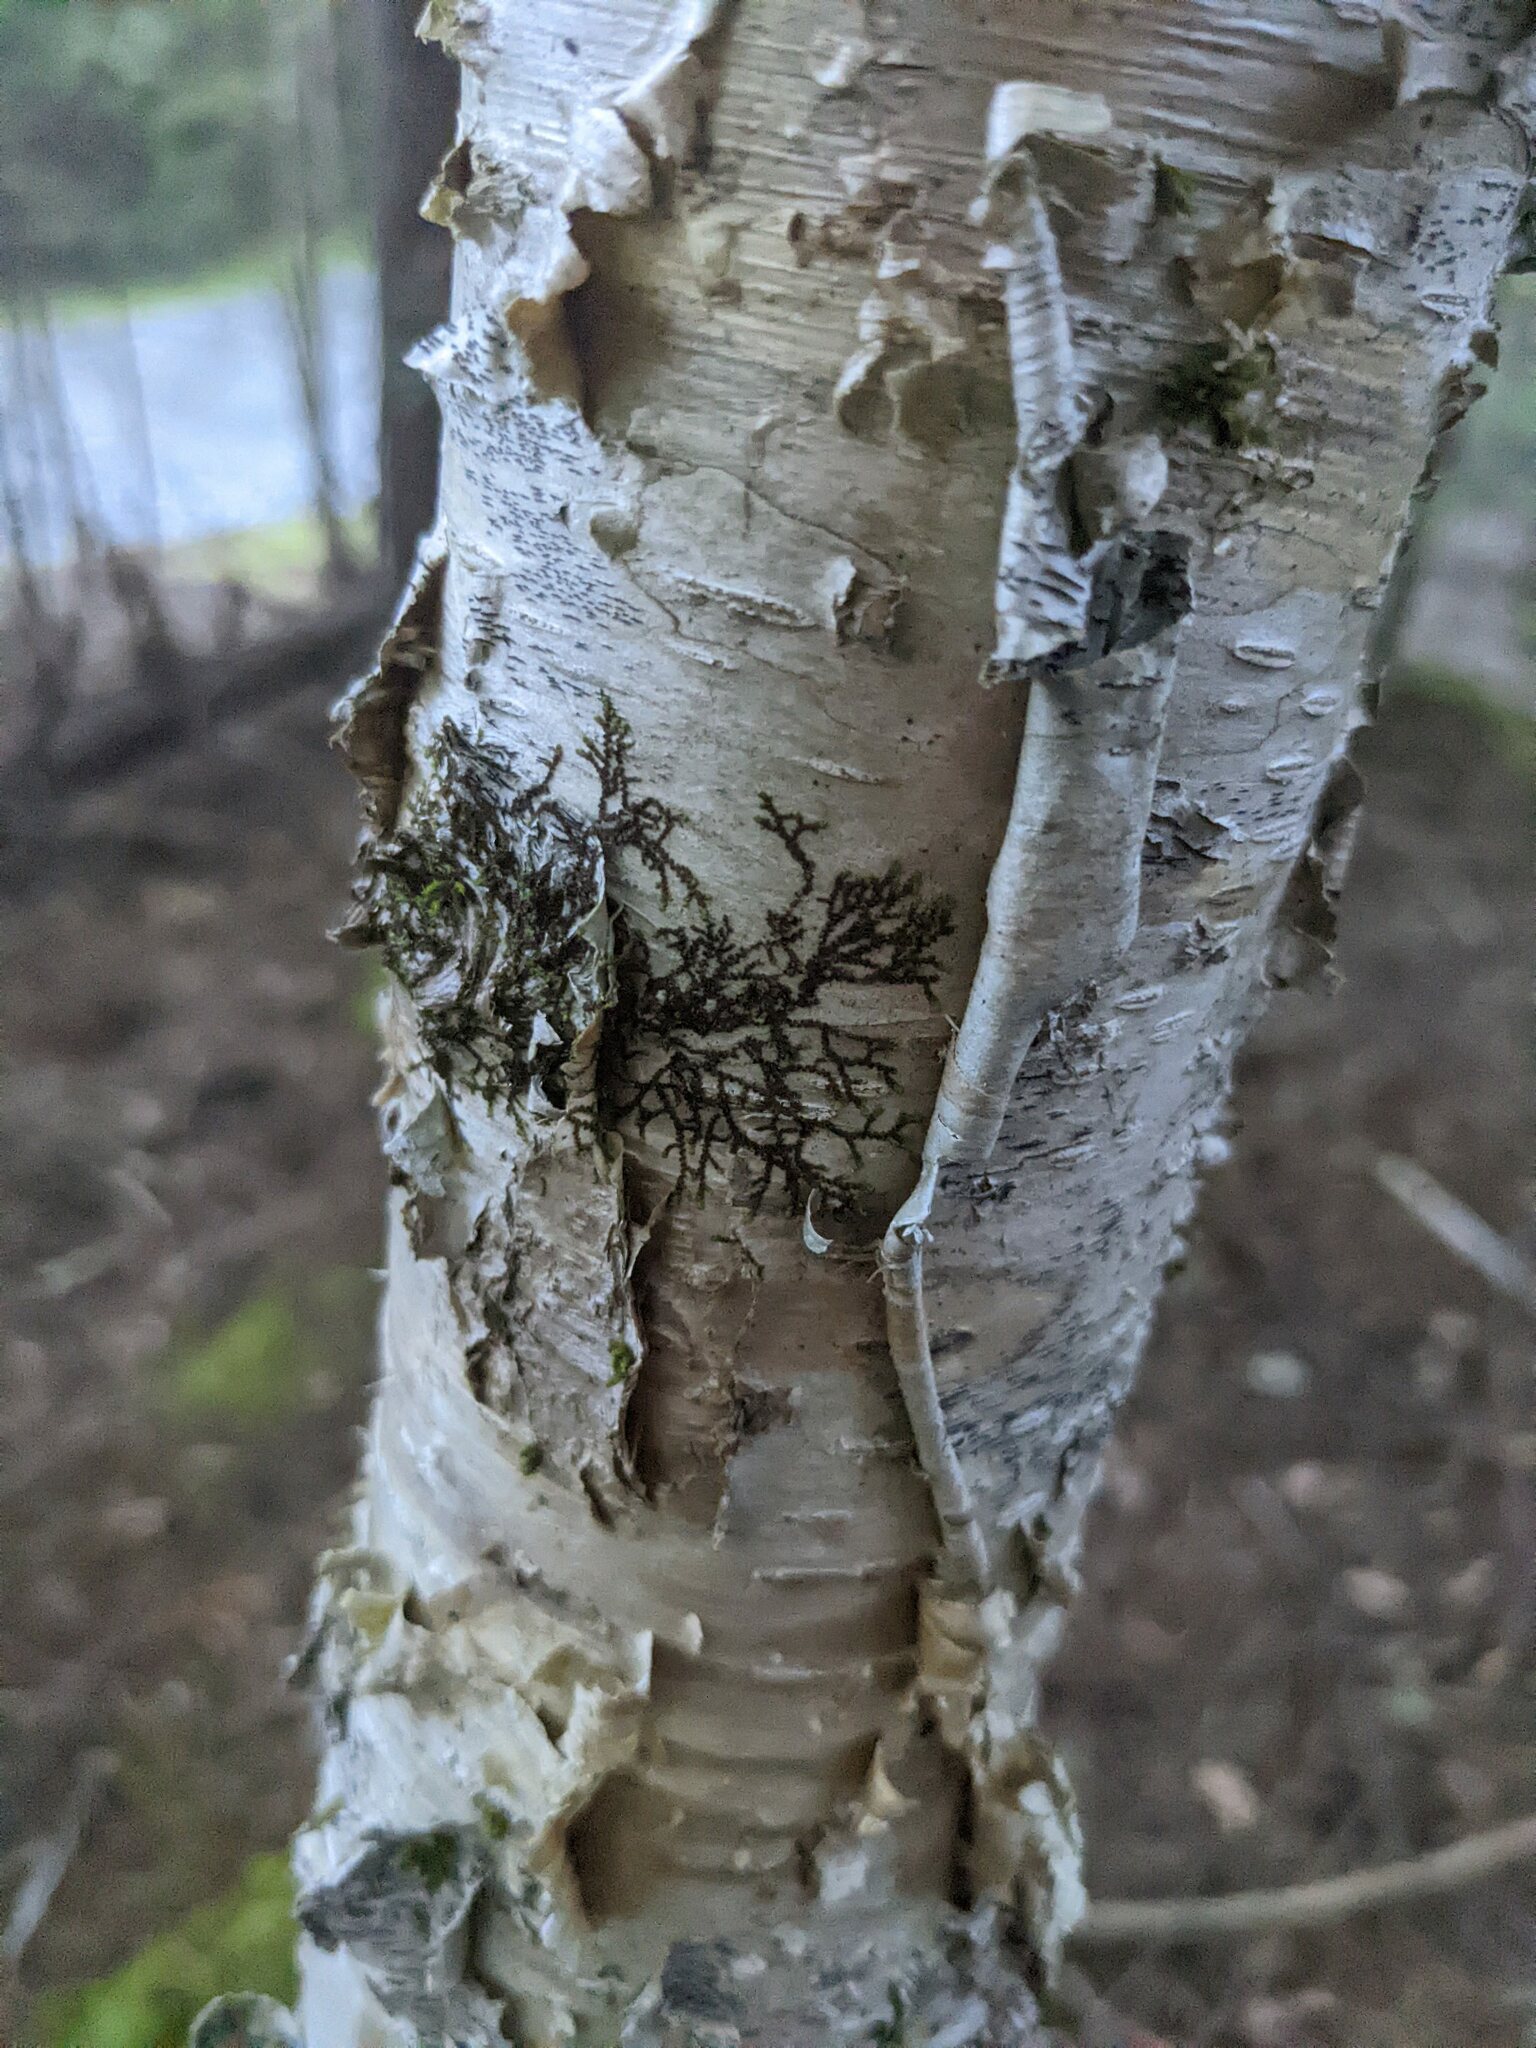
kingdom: Plantae
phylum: Marchantiophyta
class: Jungermanniopsida
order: Porellales
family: Frullaniaceae
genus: Frullania
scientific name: Frullania eboracensis
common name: New york scalewort
